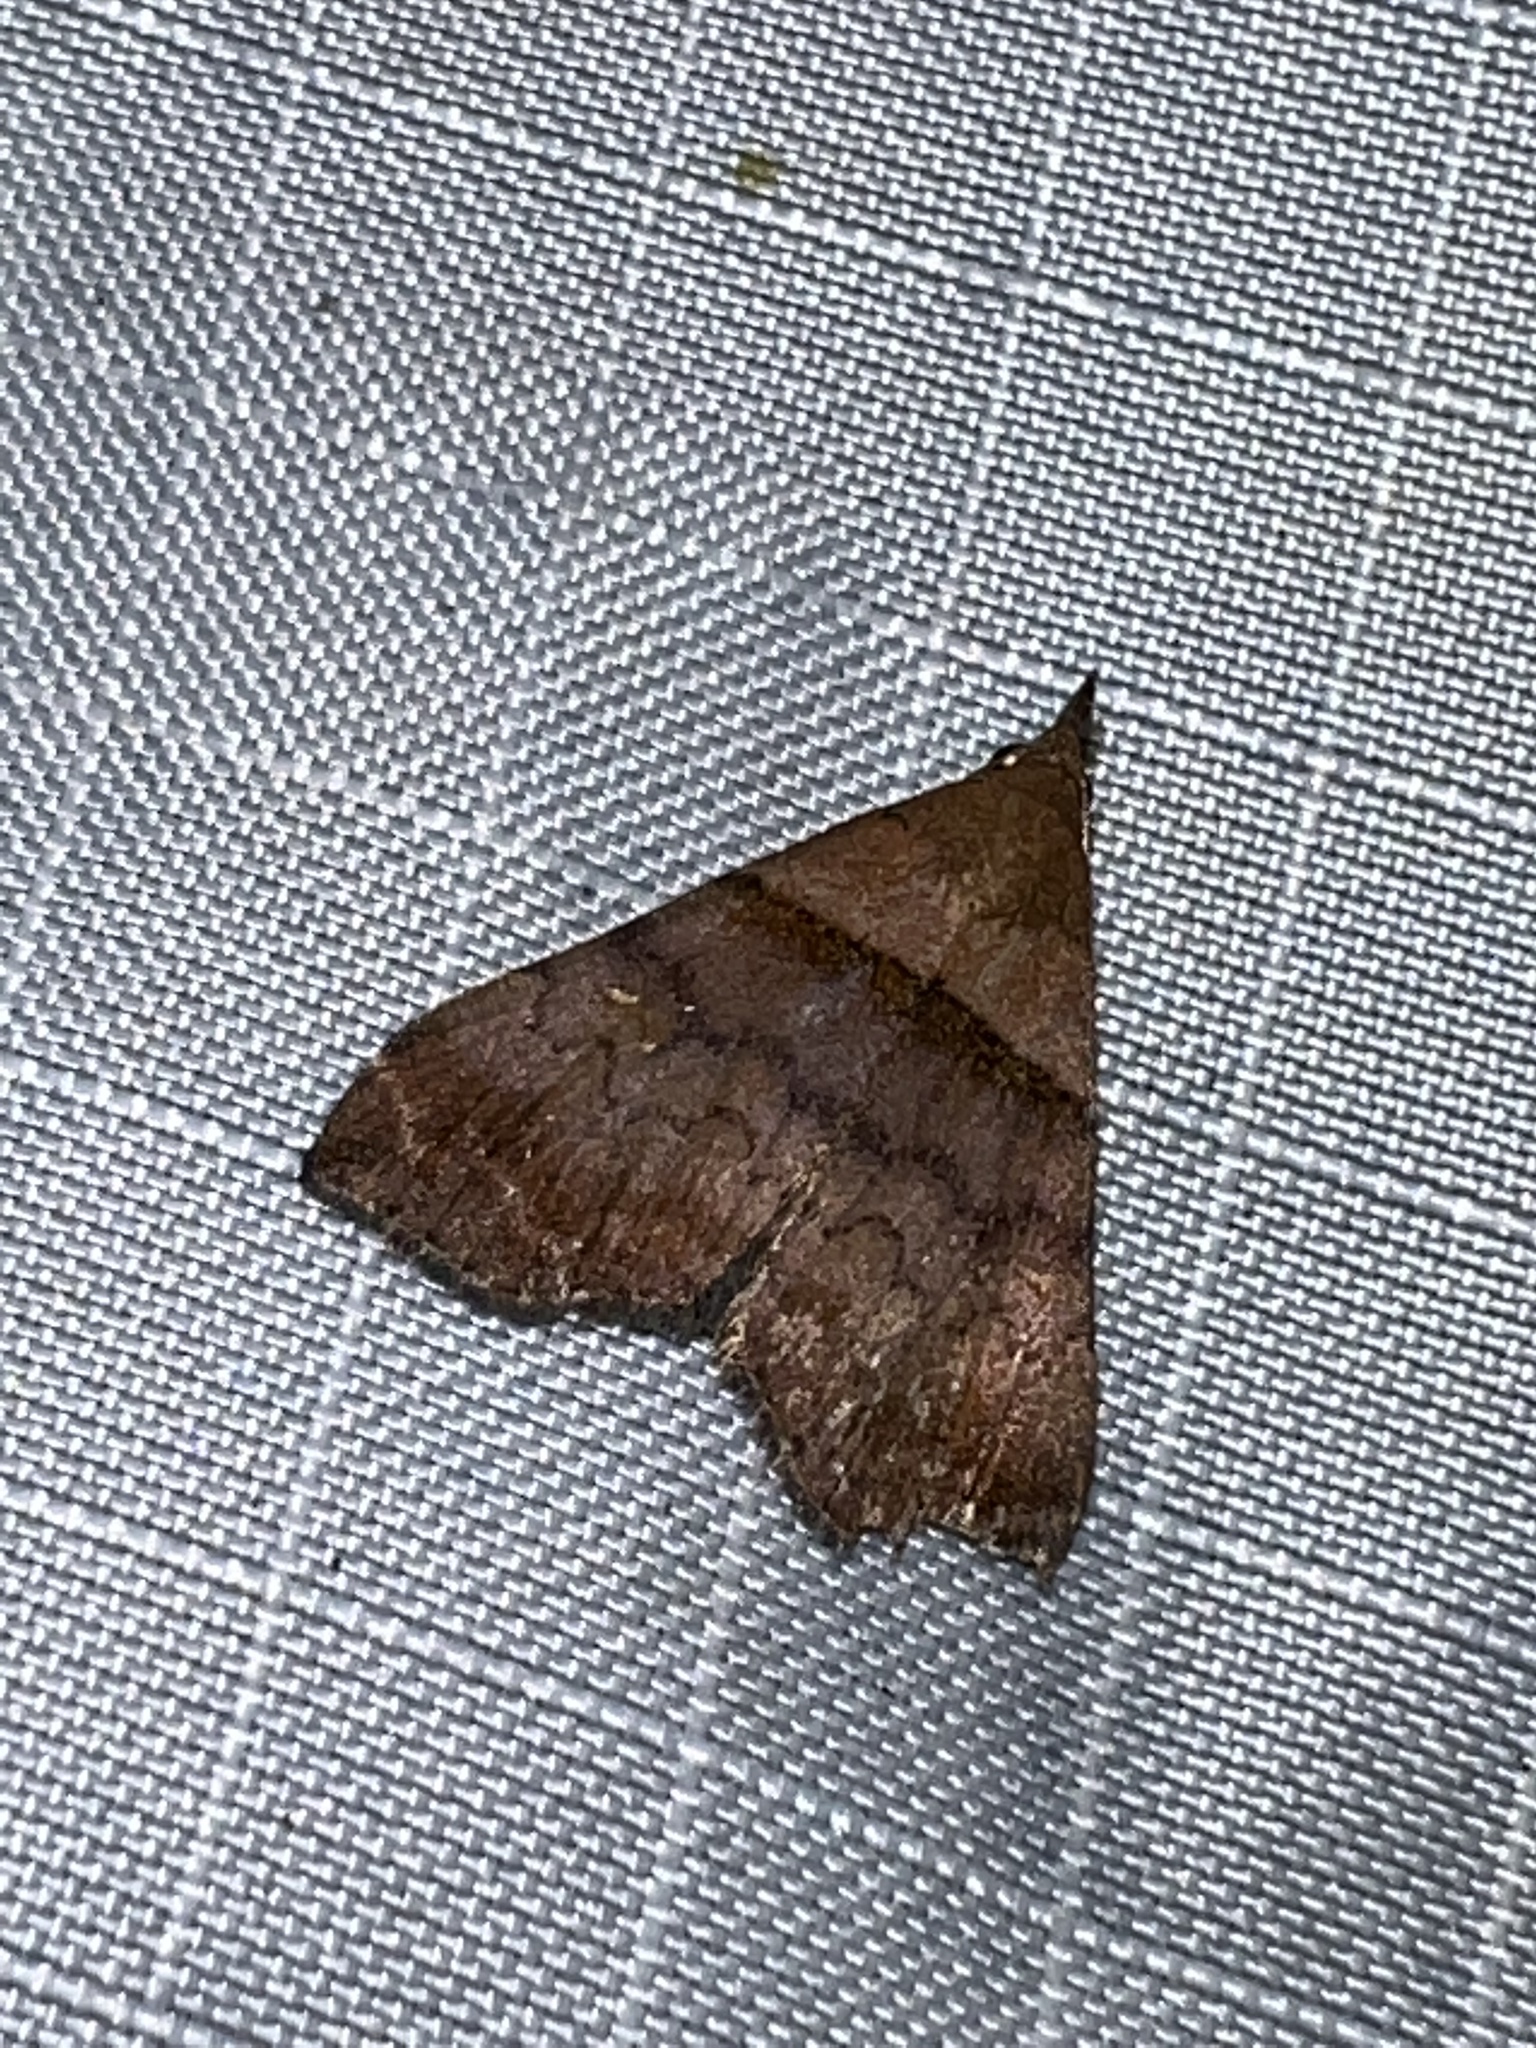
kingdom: Animalia
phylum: Arthropoda
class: Insecta
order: Lepidoptera
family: Erebidae
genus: Lascoria
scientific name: Lascoria ambigualis
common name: Ambiguous moth
